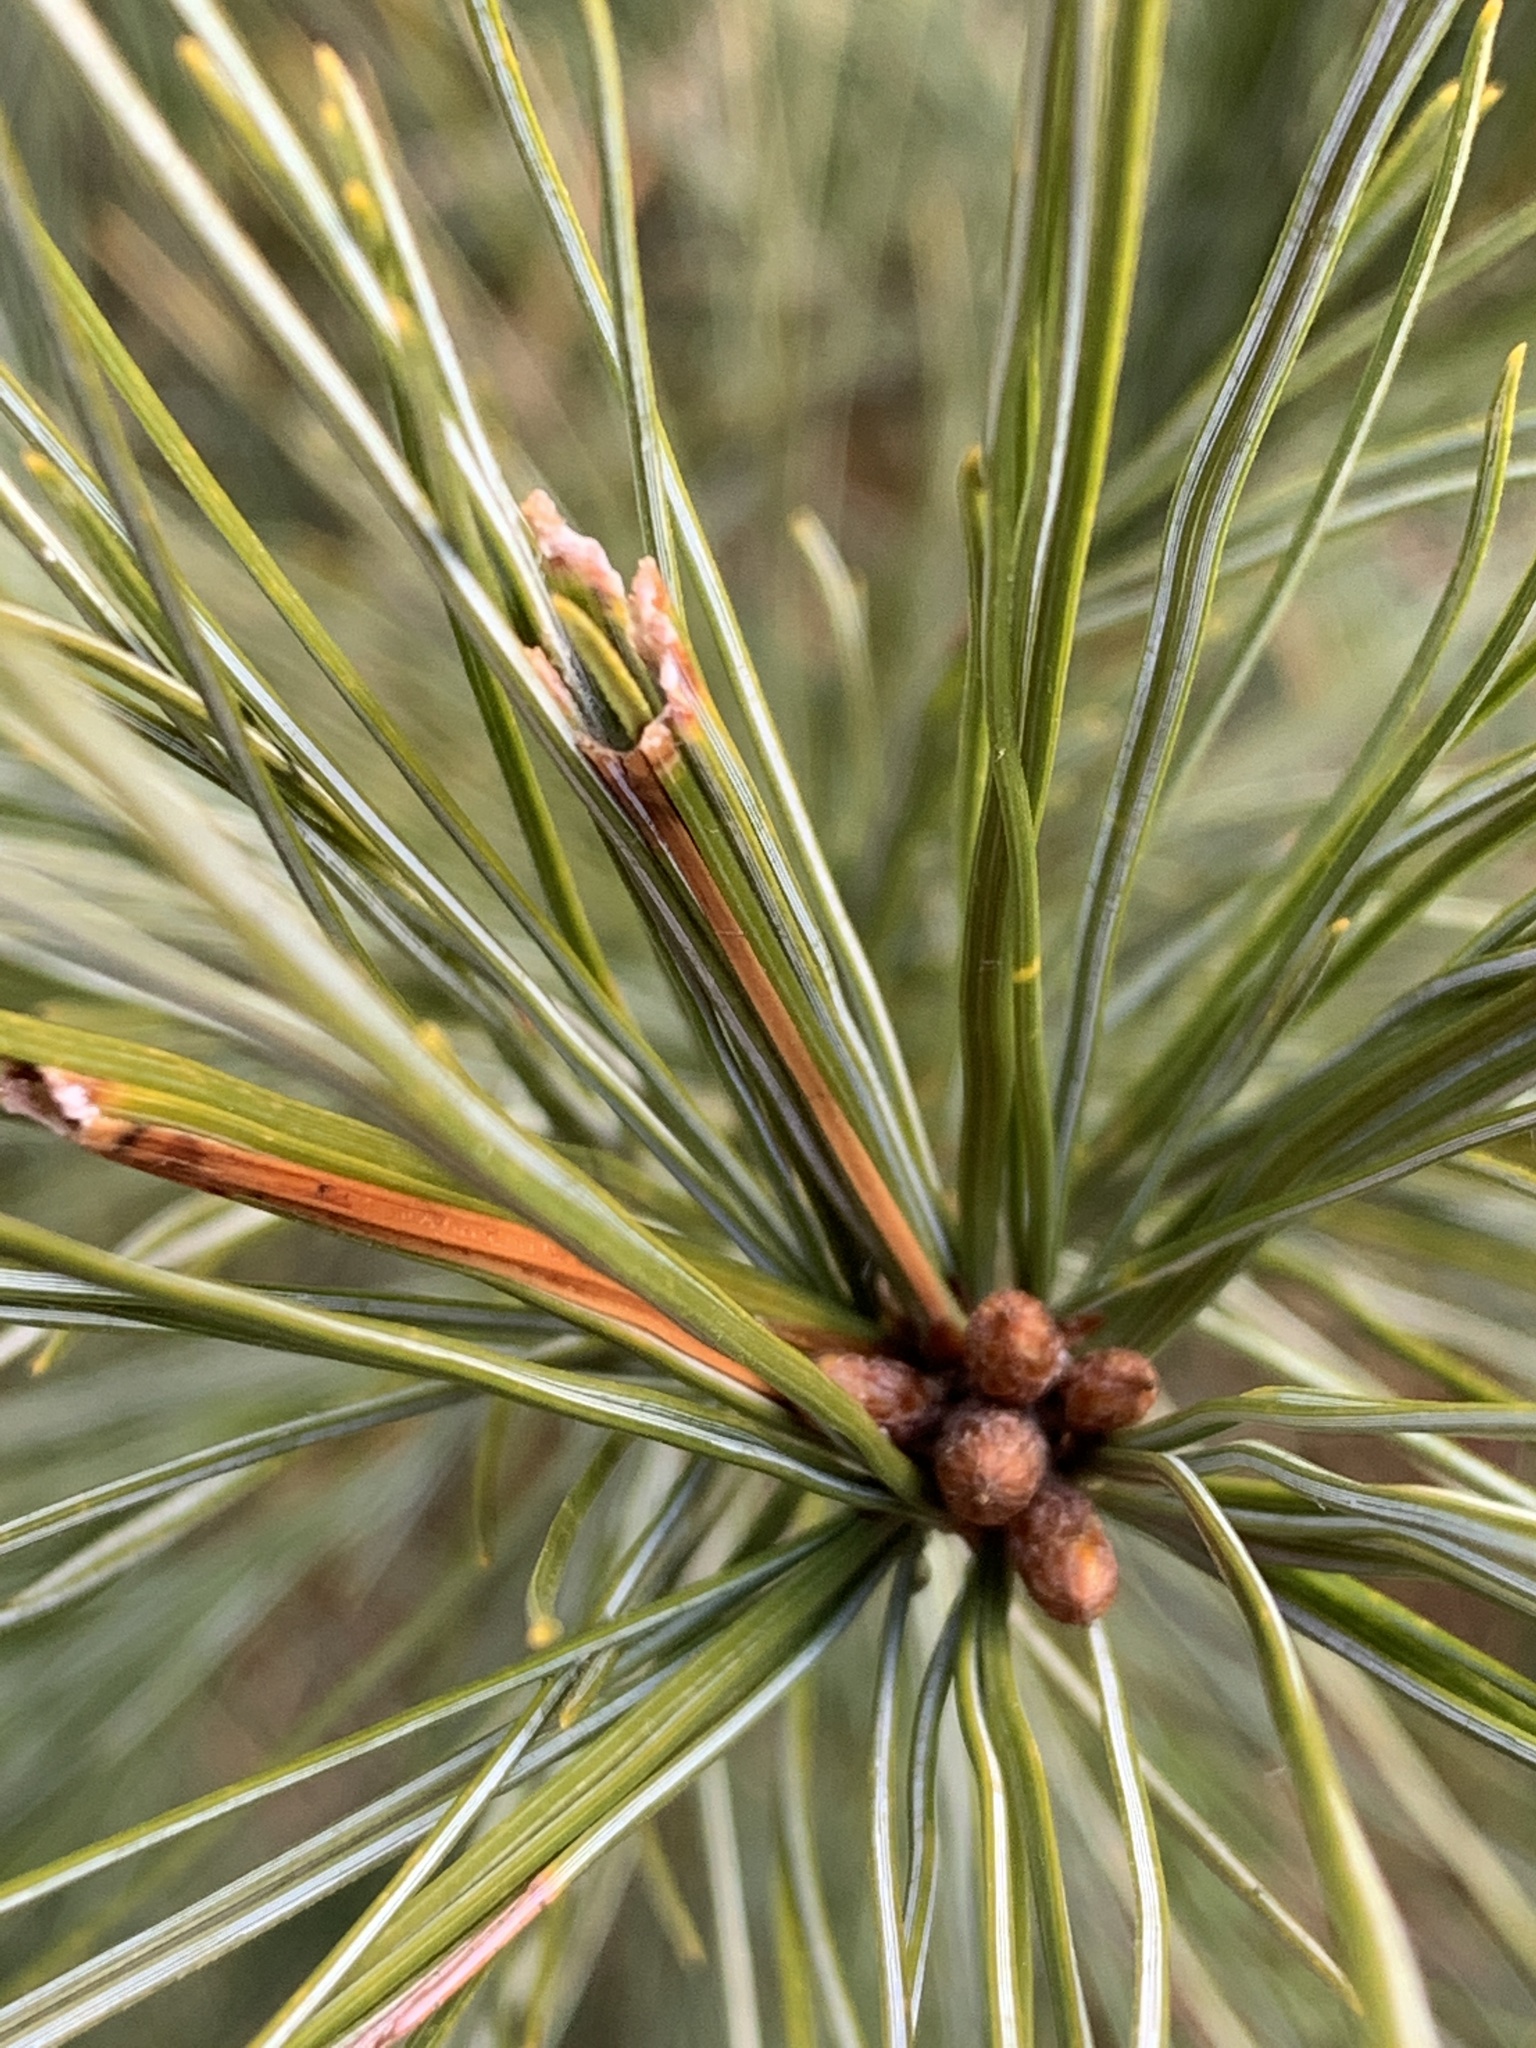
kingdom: Animalia
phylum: Arthropoda
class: Insecta
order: Lepidoptera
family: Tortricidae
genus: Argyrotaenia
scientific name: Argyrotaenia pinatubana
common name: Pine tube moth
